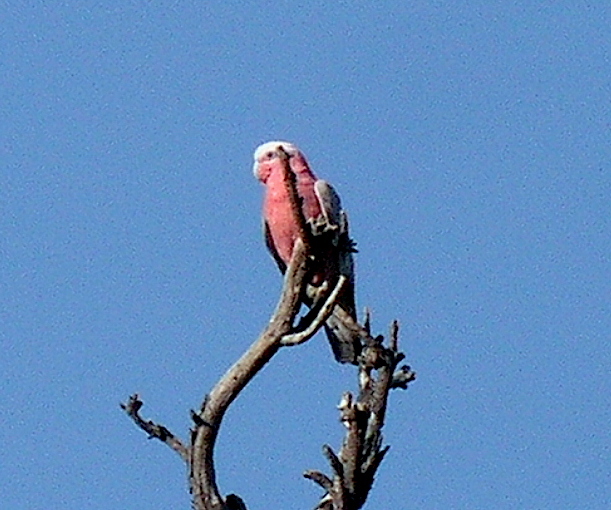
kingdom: Animalia
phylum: Chordata
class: Aves
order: Psittaciformes
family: Psittacidae
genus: Eolophus
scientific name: Eolophus roseicapilla
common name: Galah
